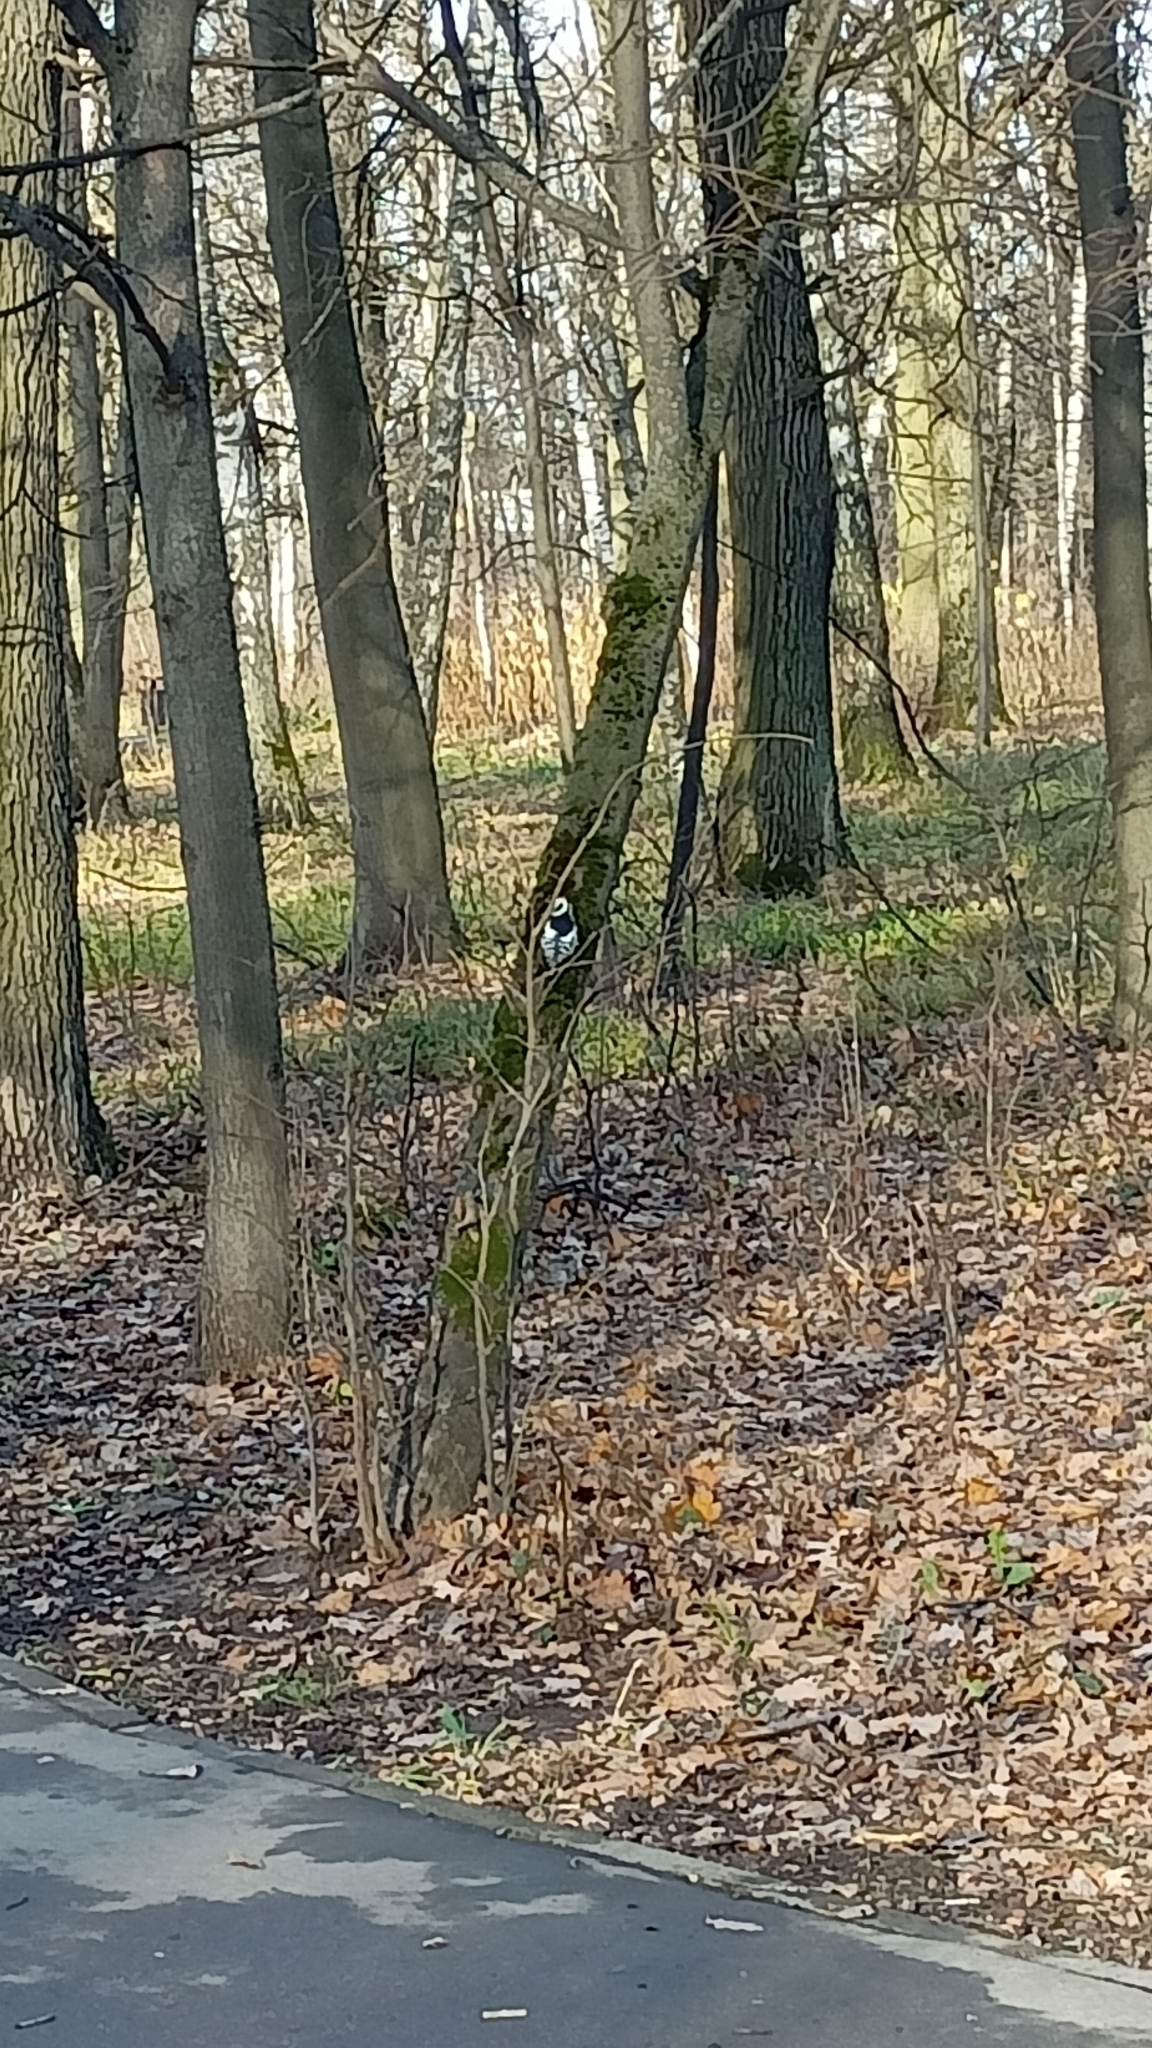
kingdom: Animalia
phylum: Chordata
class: Aves
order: Piciformes
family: Picidae
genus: Dendrocoptes
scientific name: Dendrocoptes medius
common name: Middle spotted woodpecker
